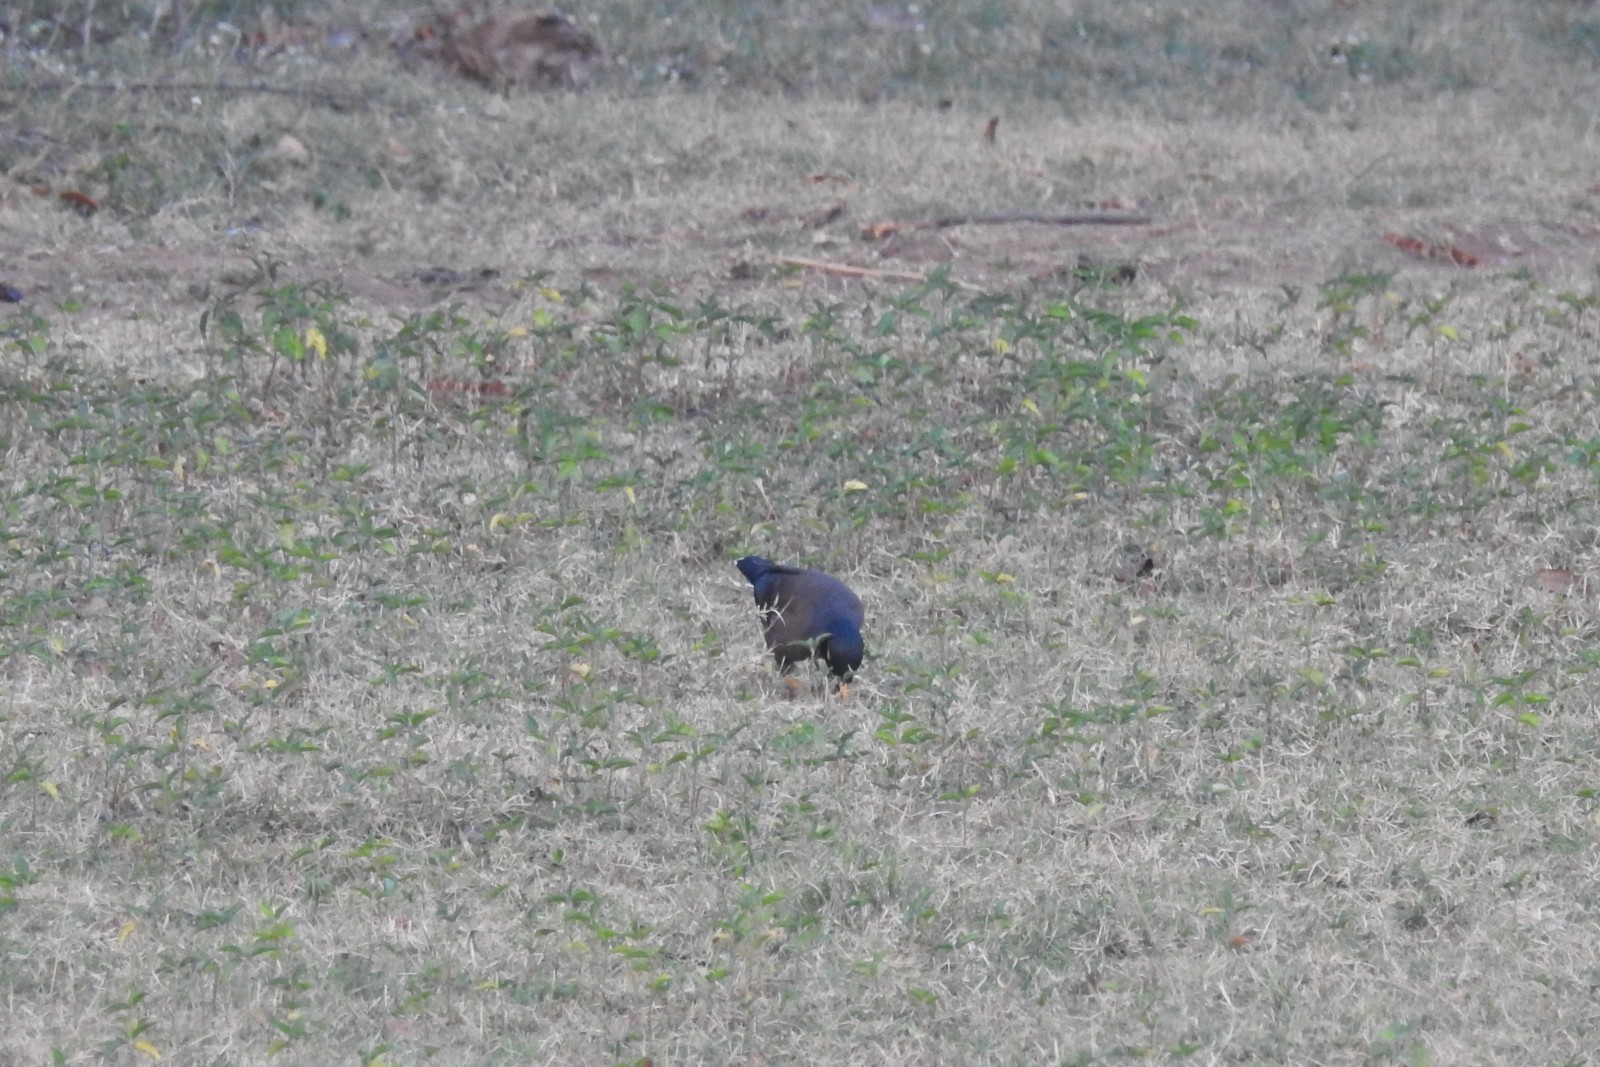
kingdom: Animalia
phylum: Chordata
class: Aves
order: Passeriformes
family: Sturnidae
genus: Acridotheres
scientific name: Acridotheres tristis
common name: Common myna
